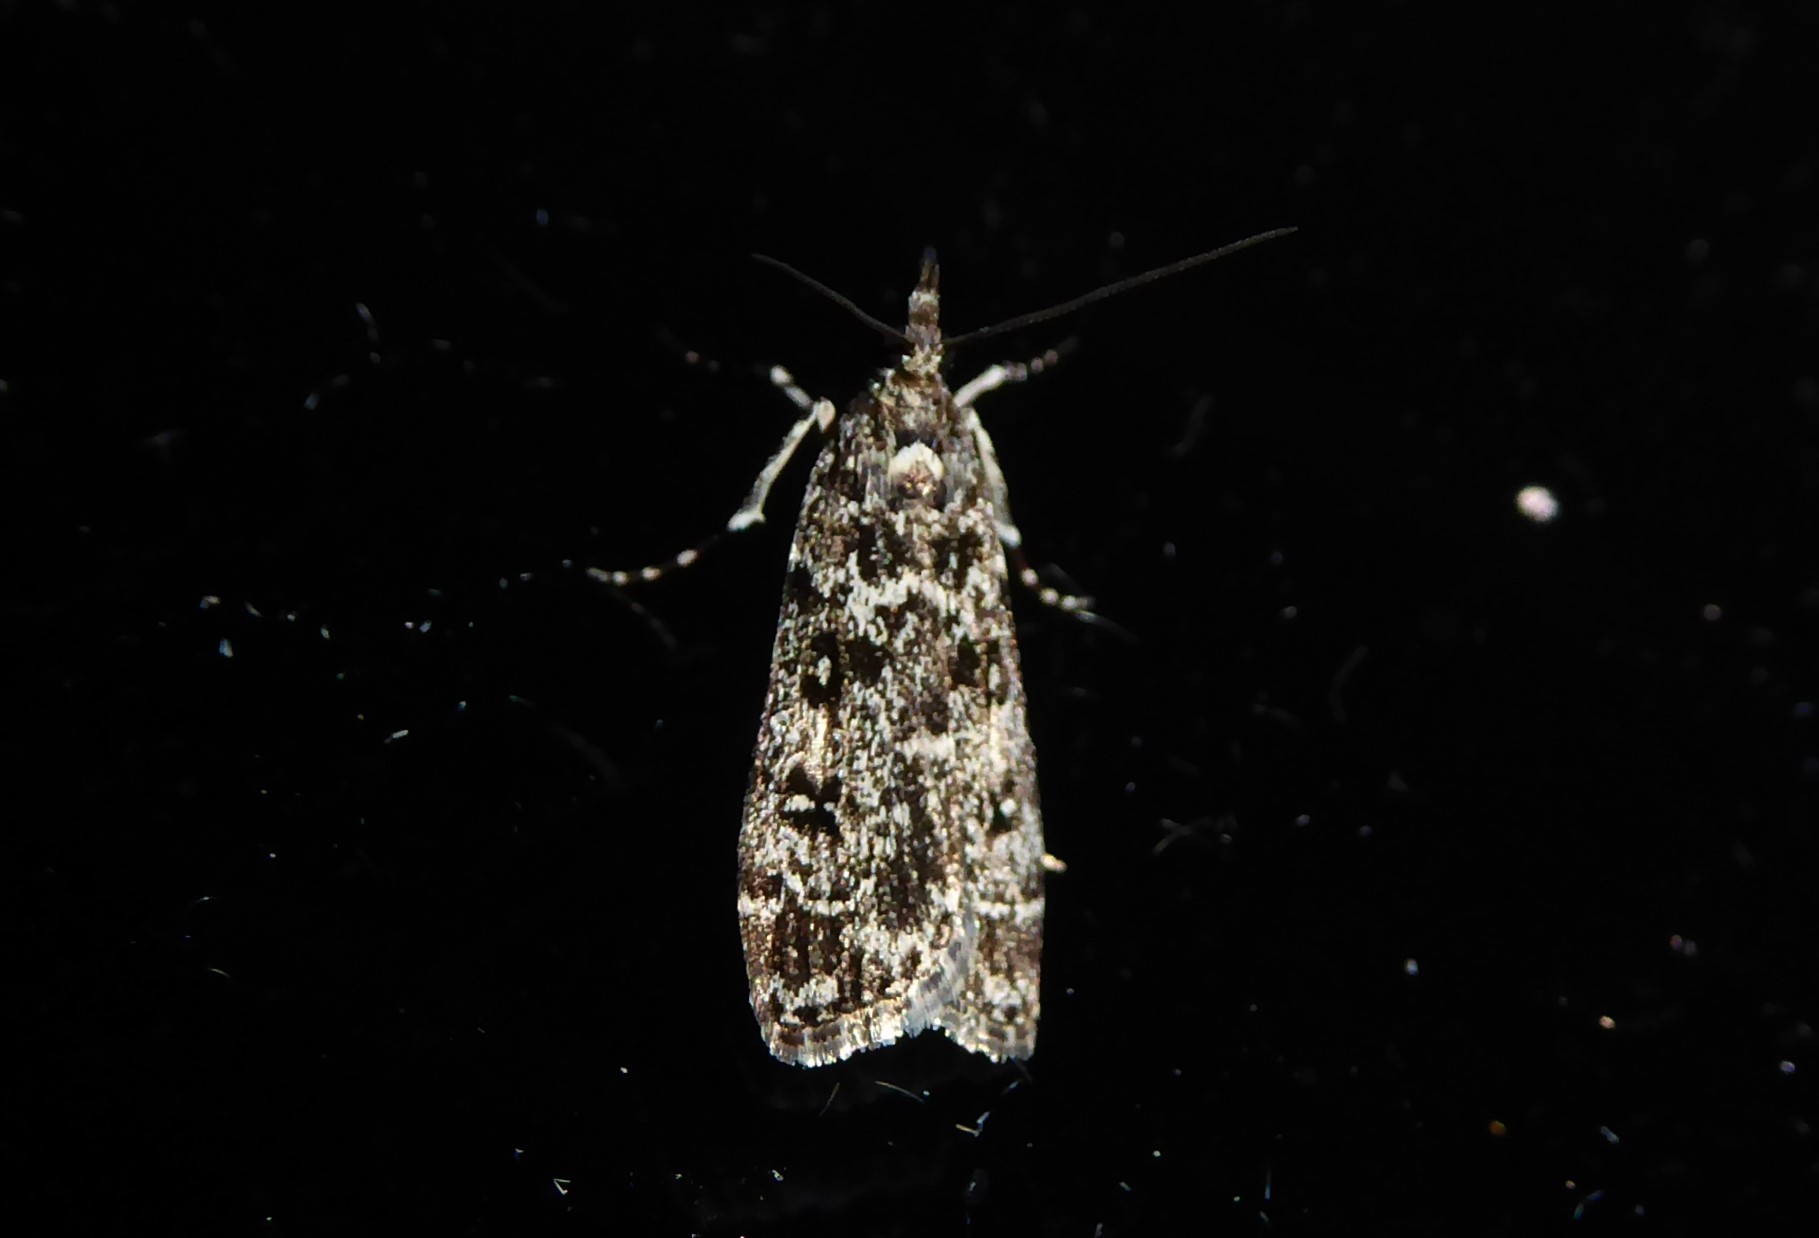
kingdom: Animalia
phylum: Arthropoda
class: Insecta
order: Lepidoptera
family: Crambidae
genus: Eudonia
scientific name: Eudonia philerga
